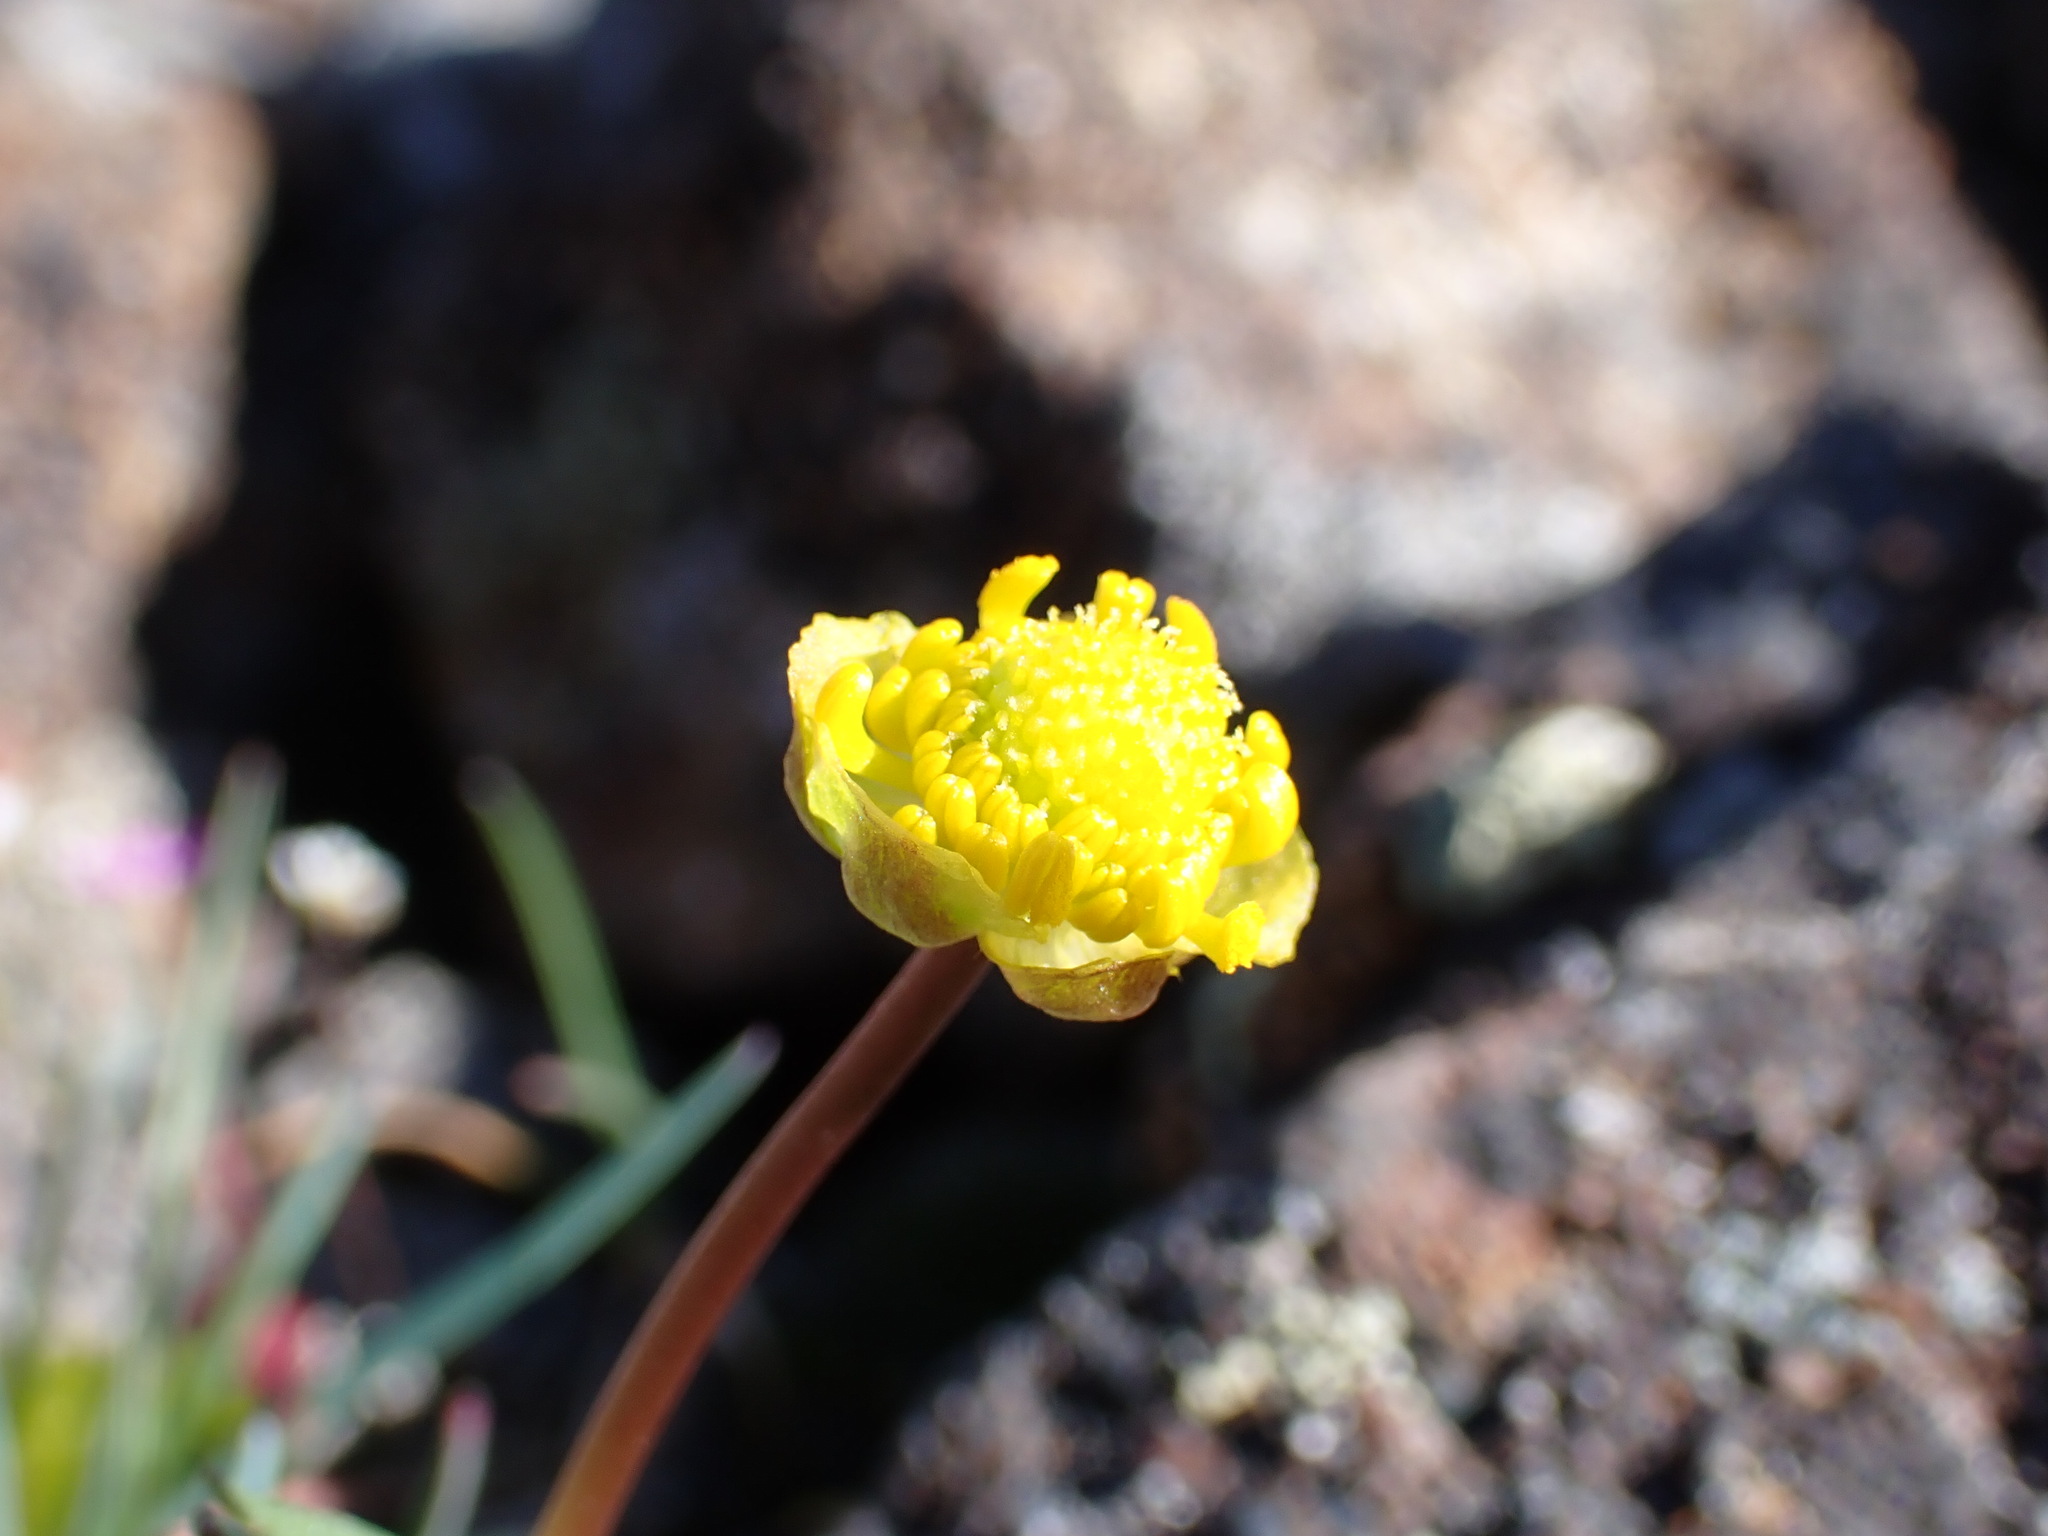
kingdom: Plantae
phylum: Tracheophyta
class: Magnoliopsida
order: Ranunculales
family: Ranunculaceae
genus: Ranunculus
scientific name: Ranunculus glaberrimus
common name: Sagebrush buttercup
